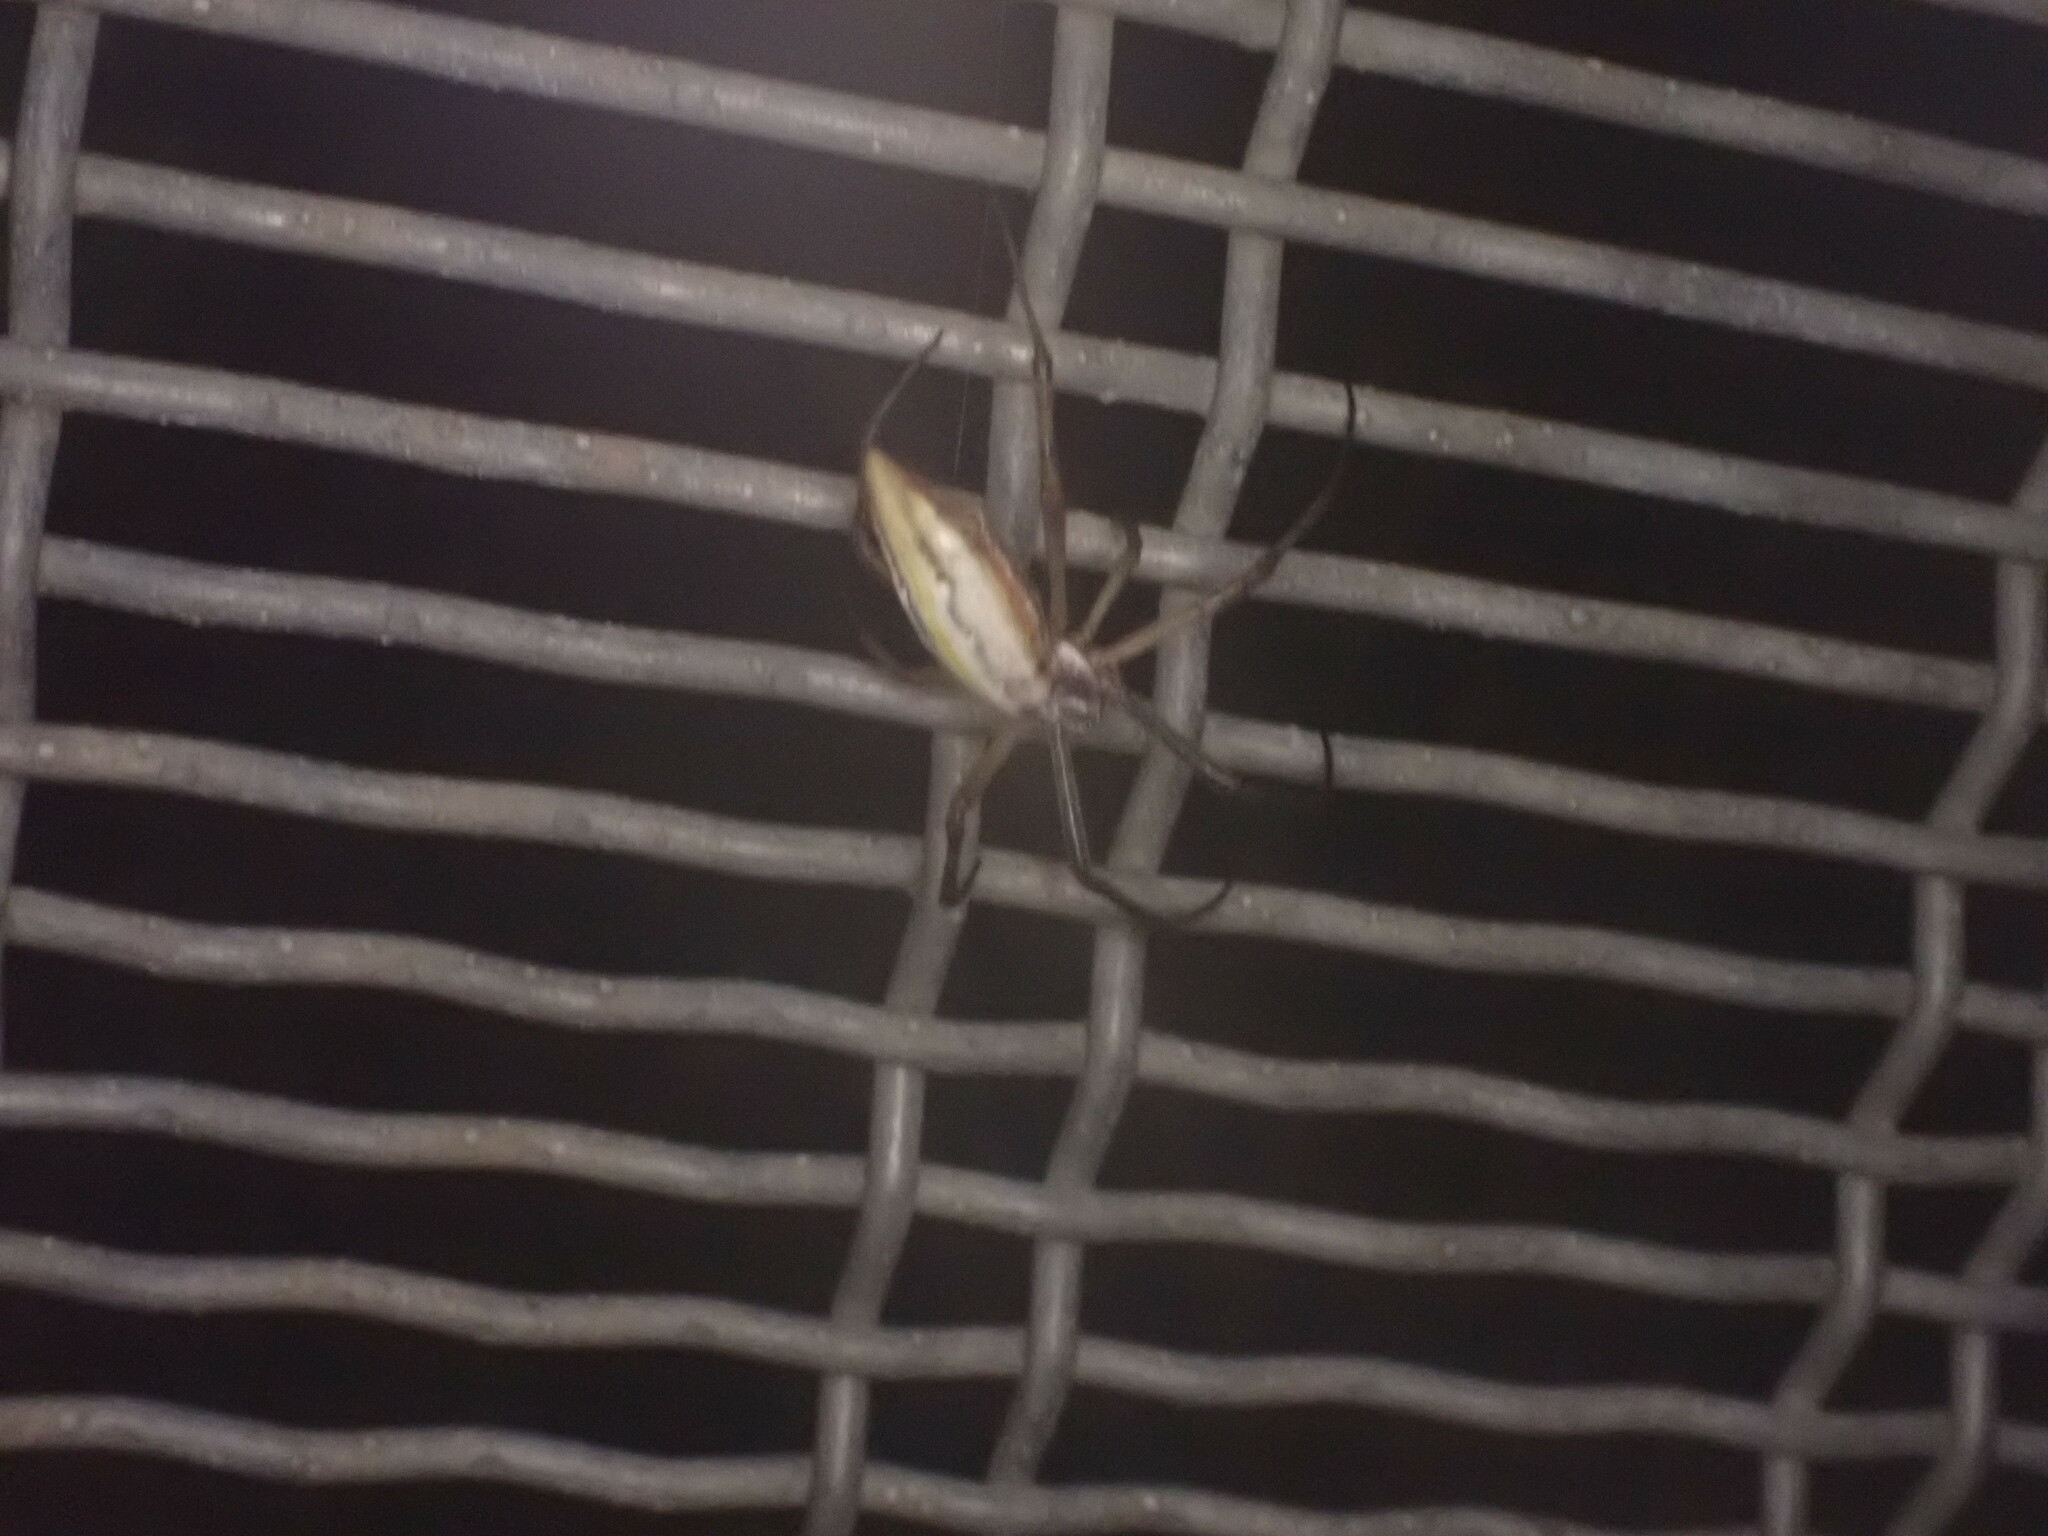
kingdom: Animalia
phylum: Arthropoda
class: Arachnida
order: Araneae
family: Araneidae
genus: Argiope
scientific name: Argiope protensa
